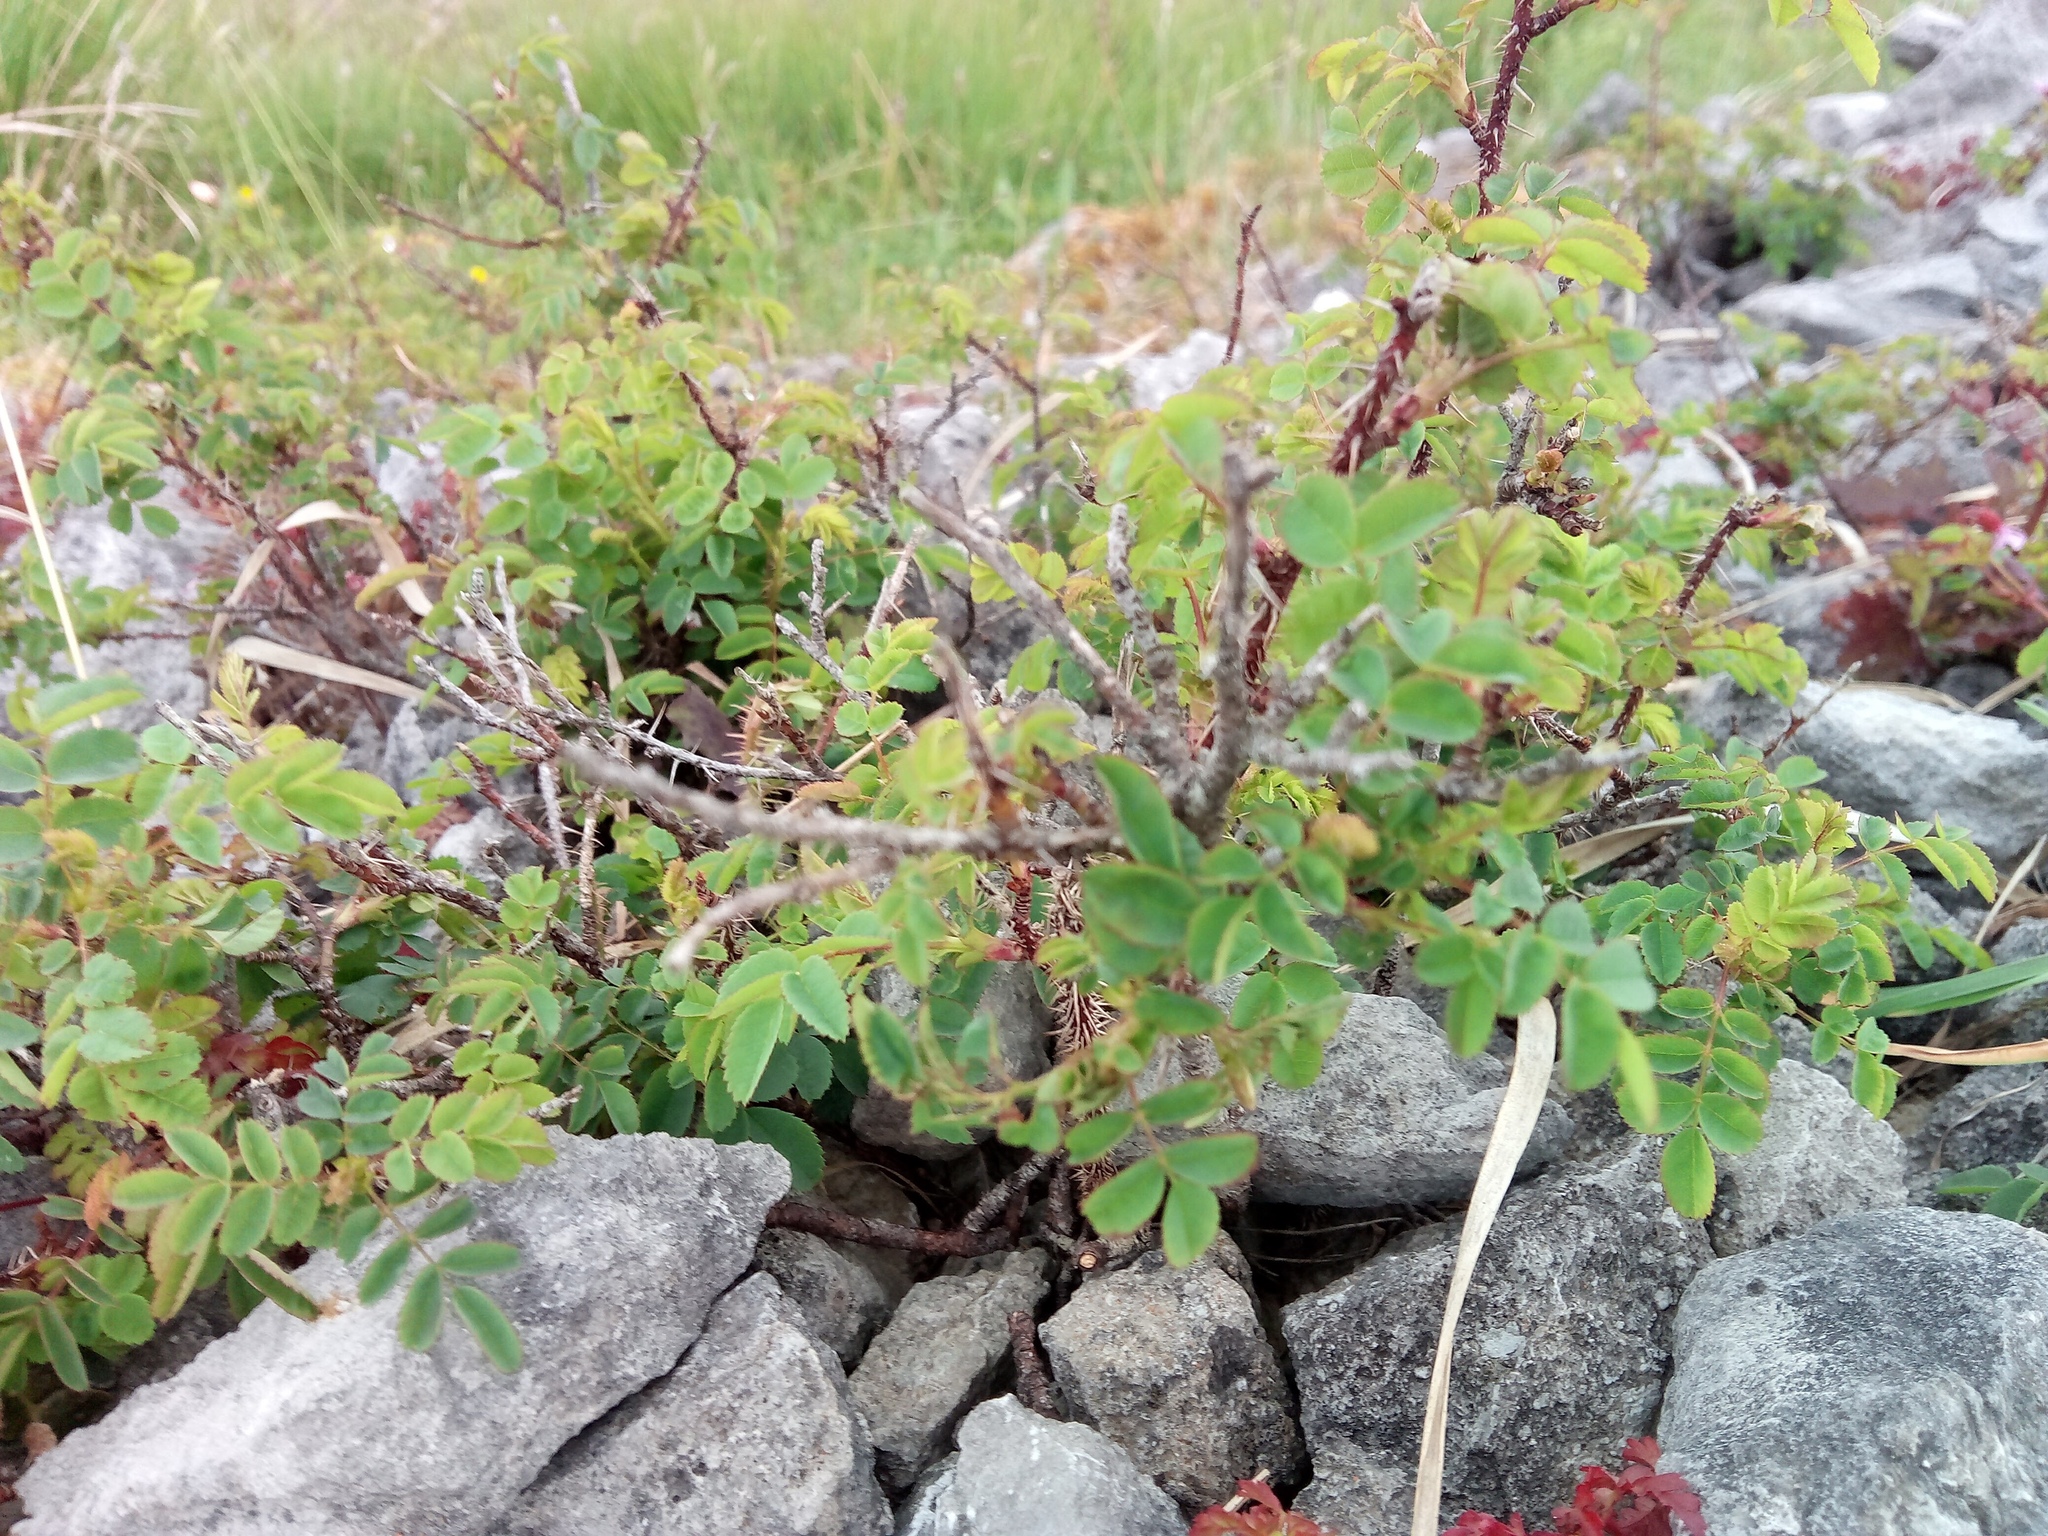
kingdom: Plantae
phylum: Tracheophyta
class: Magnoliopsida
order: Rosales
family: Rosaceae
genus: Rosa
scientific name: Rosa spinosissima
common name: Burnet rose
